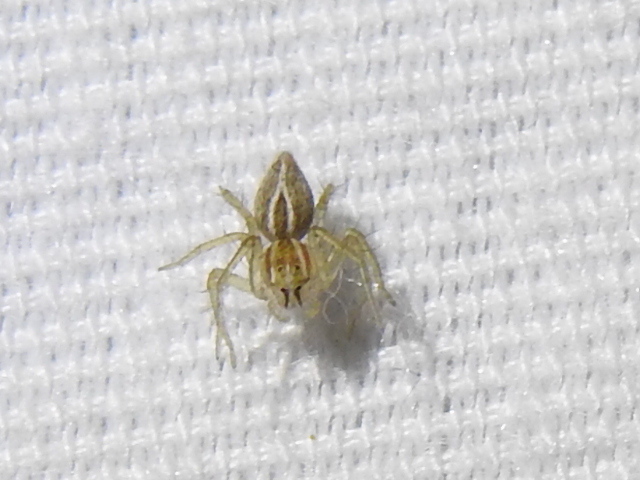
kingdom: Animalia
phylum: Arthropoda
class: Arachnida
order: Araneae
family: Oxyopidae
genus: Oxyopes
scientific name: Oxyopes salticus
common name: Lynx spiders
